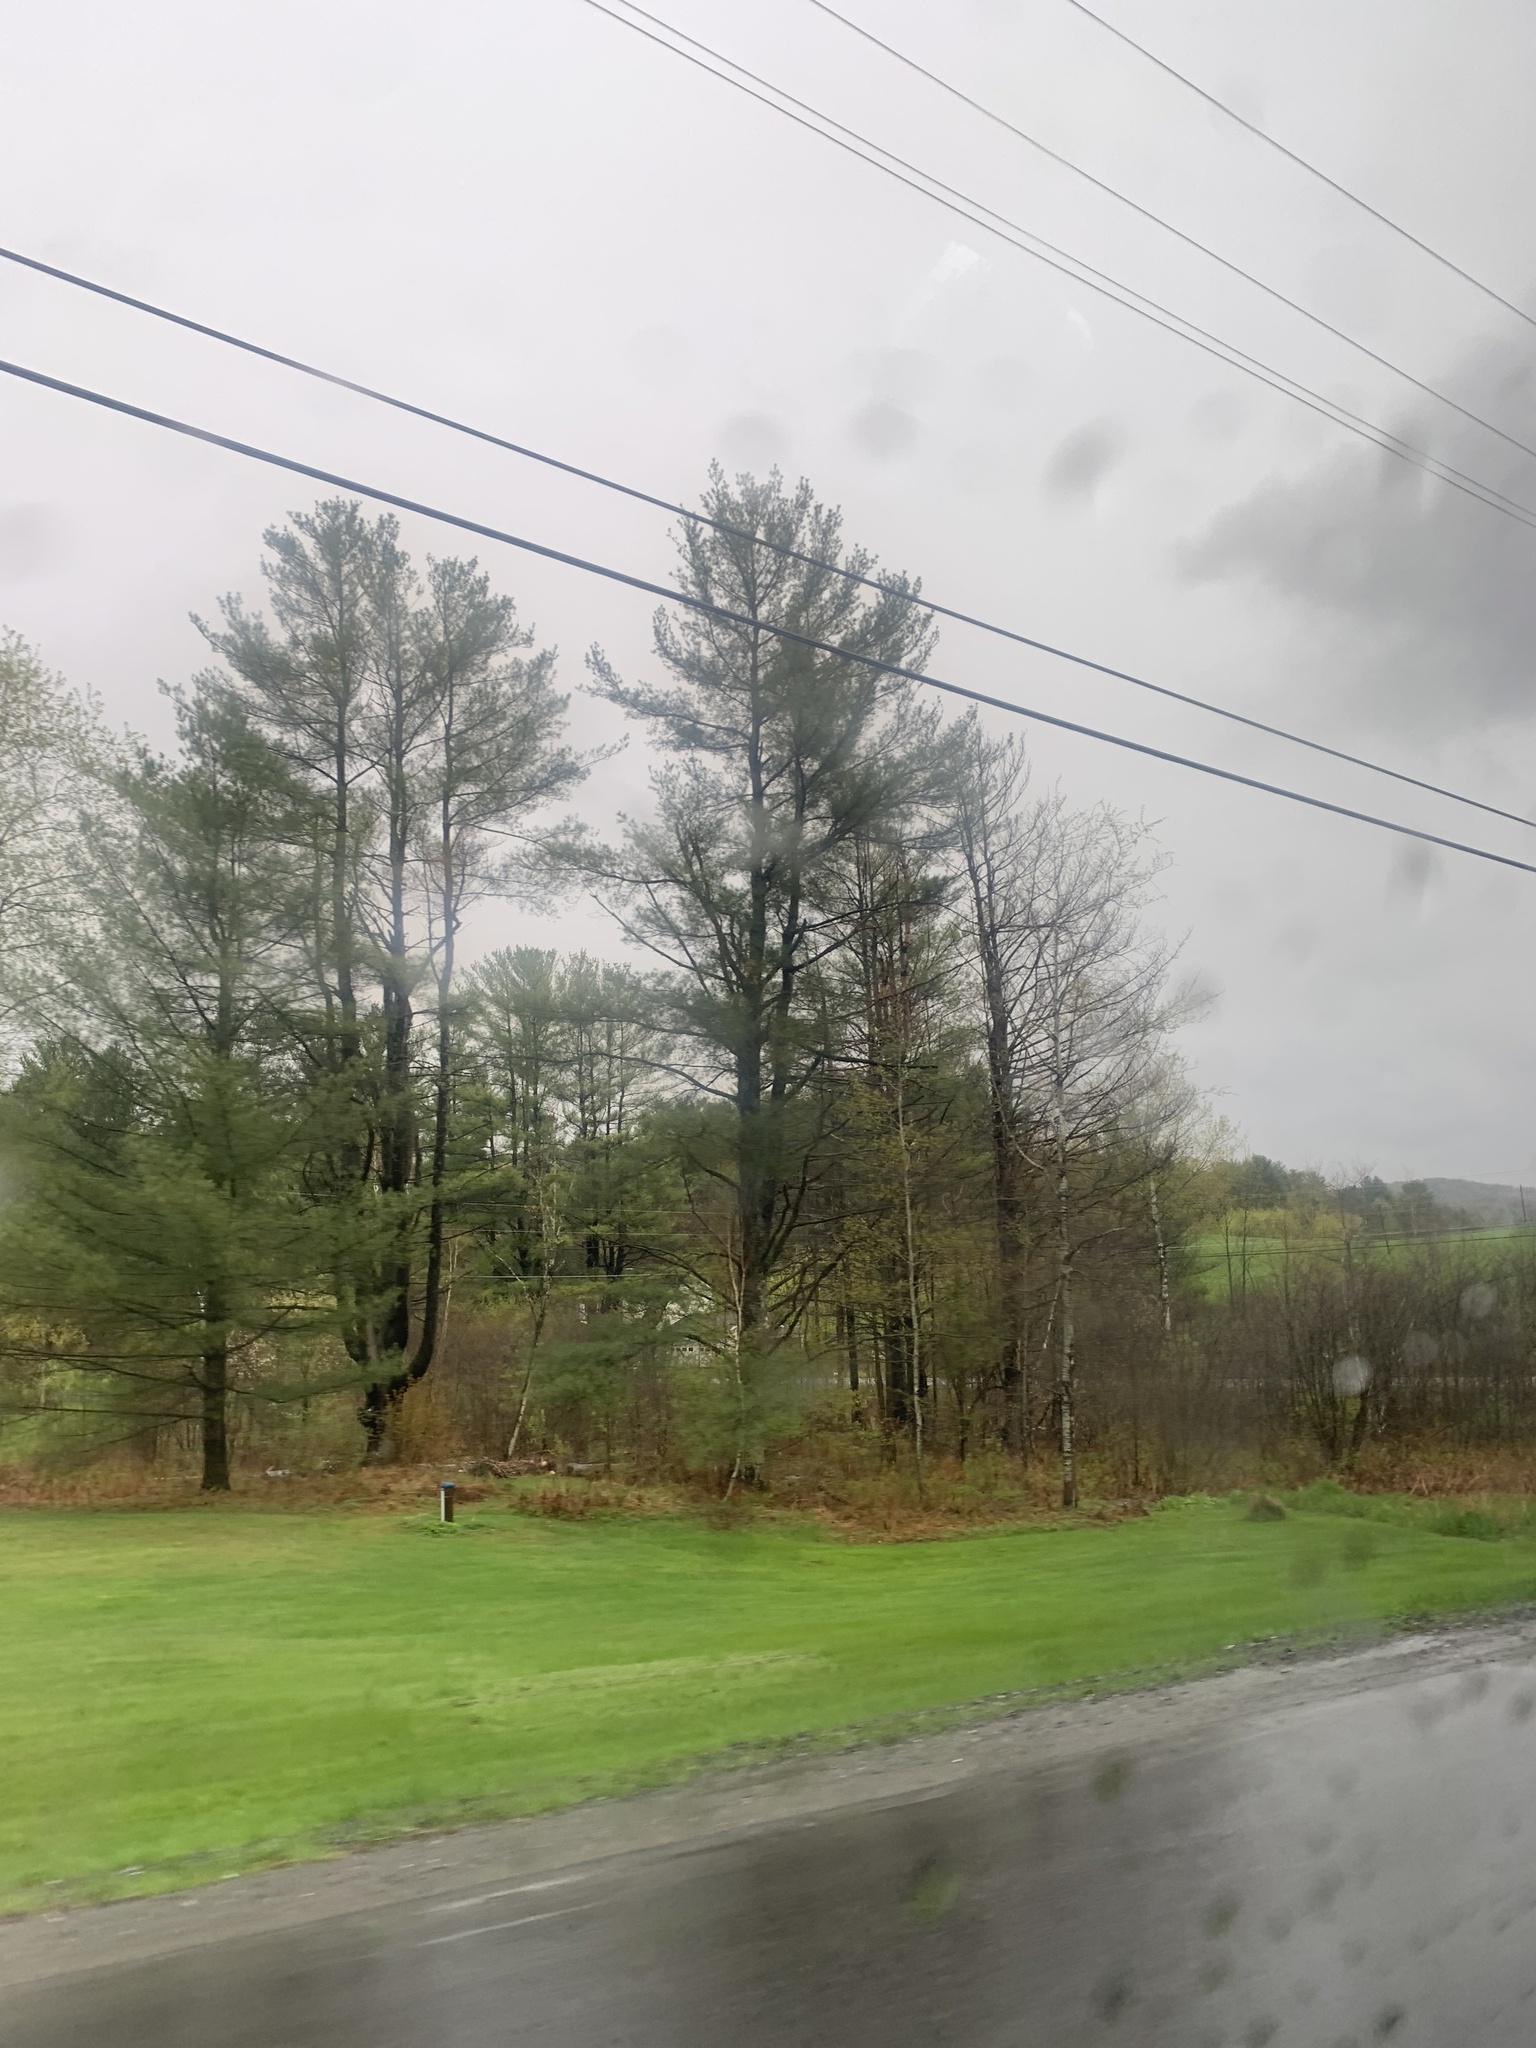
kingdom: Plantae
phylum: Tracheophyta
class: Pinopsida
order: Pinales
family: Pinaceae
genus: Pinus
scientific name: Pinus strobus
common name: Weymouth pine
